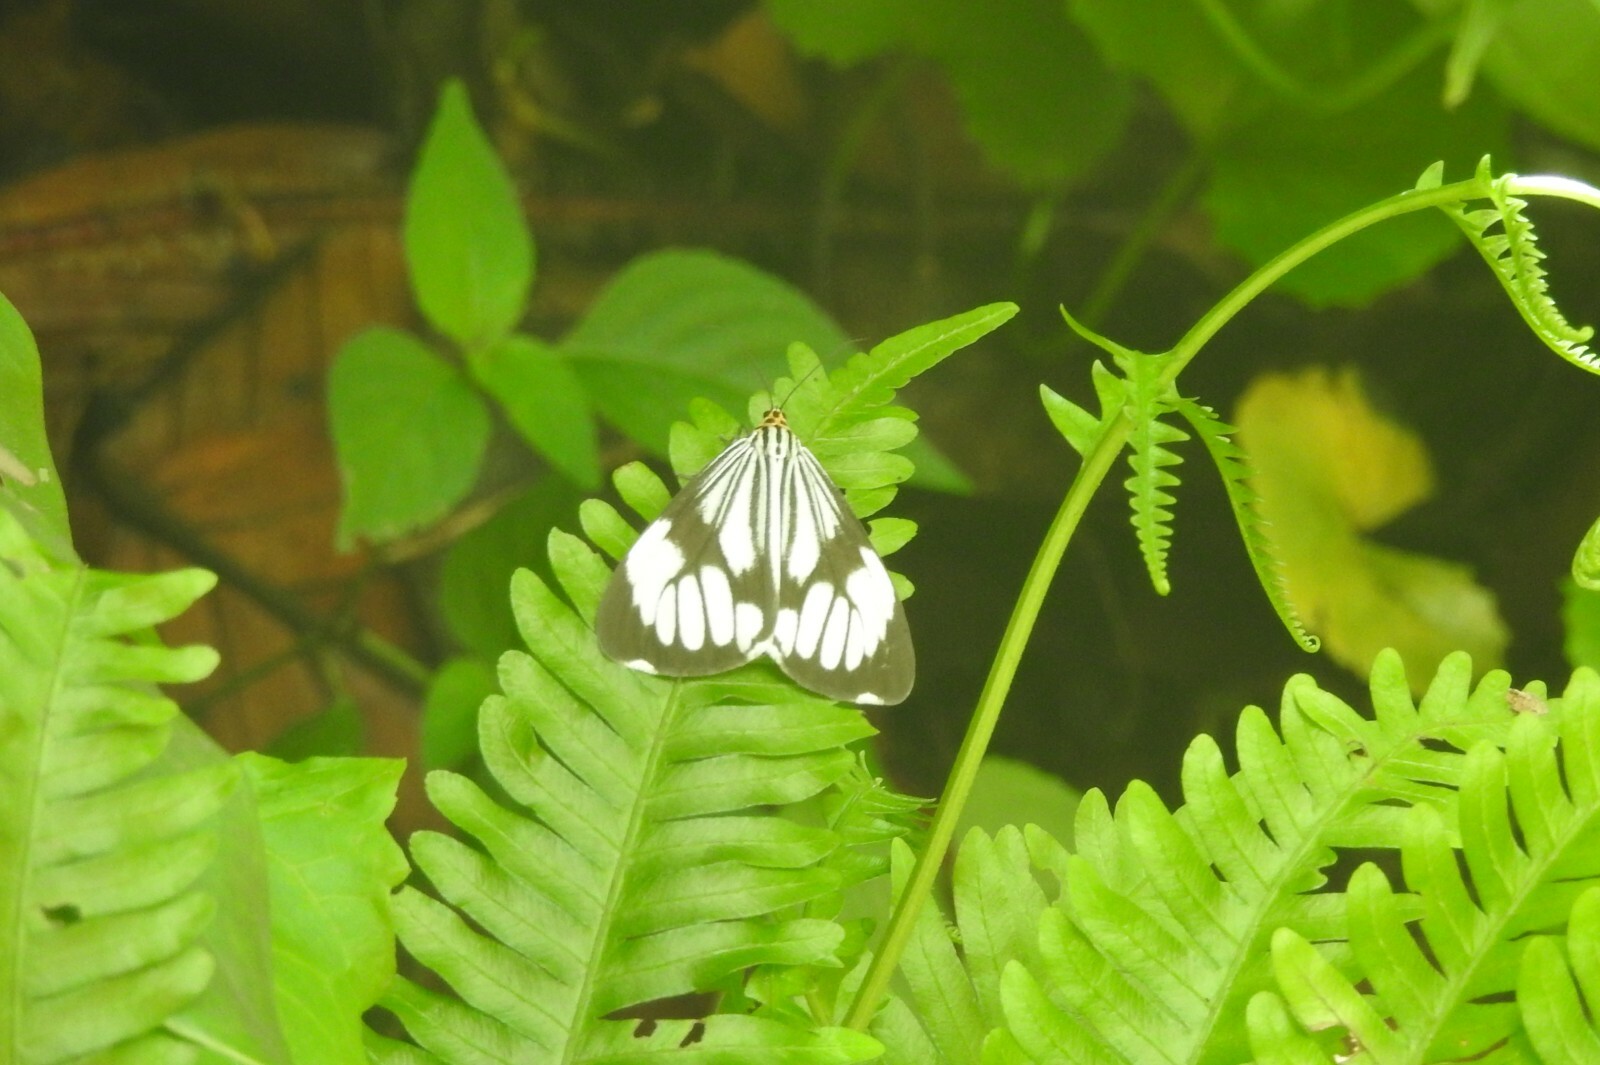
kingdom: Animalia
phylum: Arthropoda
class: Insecta
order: Lepidoptera
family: Erebidae
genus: Nyctemera
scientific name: Nyctemera coleta
